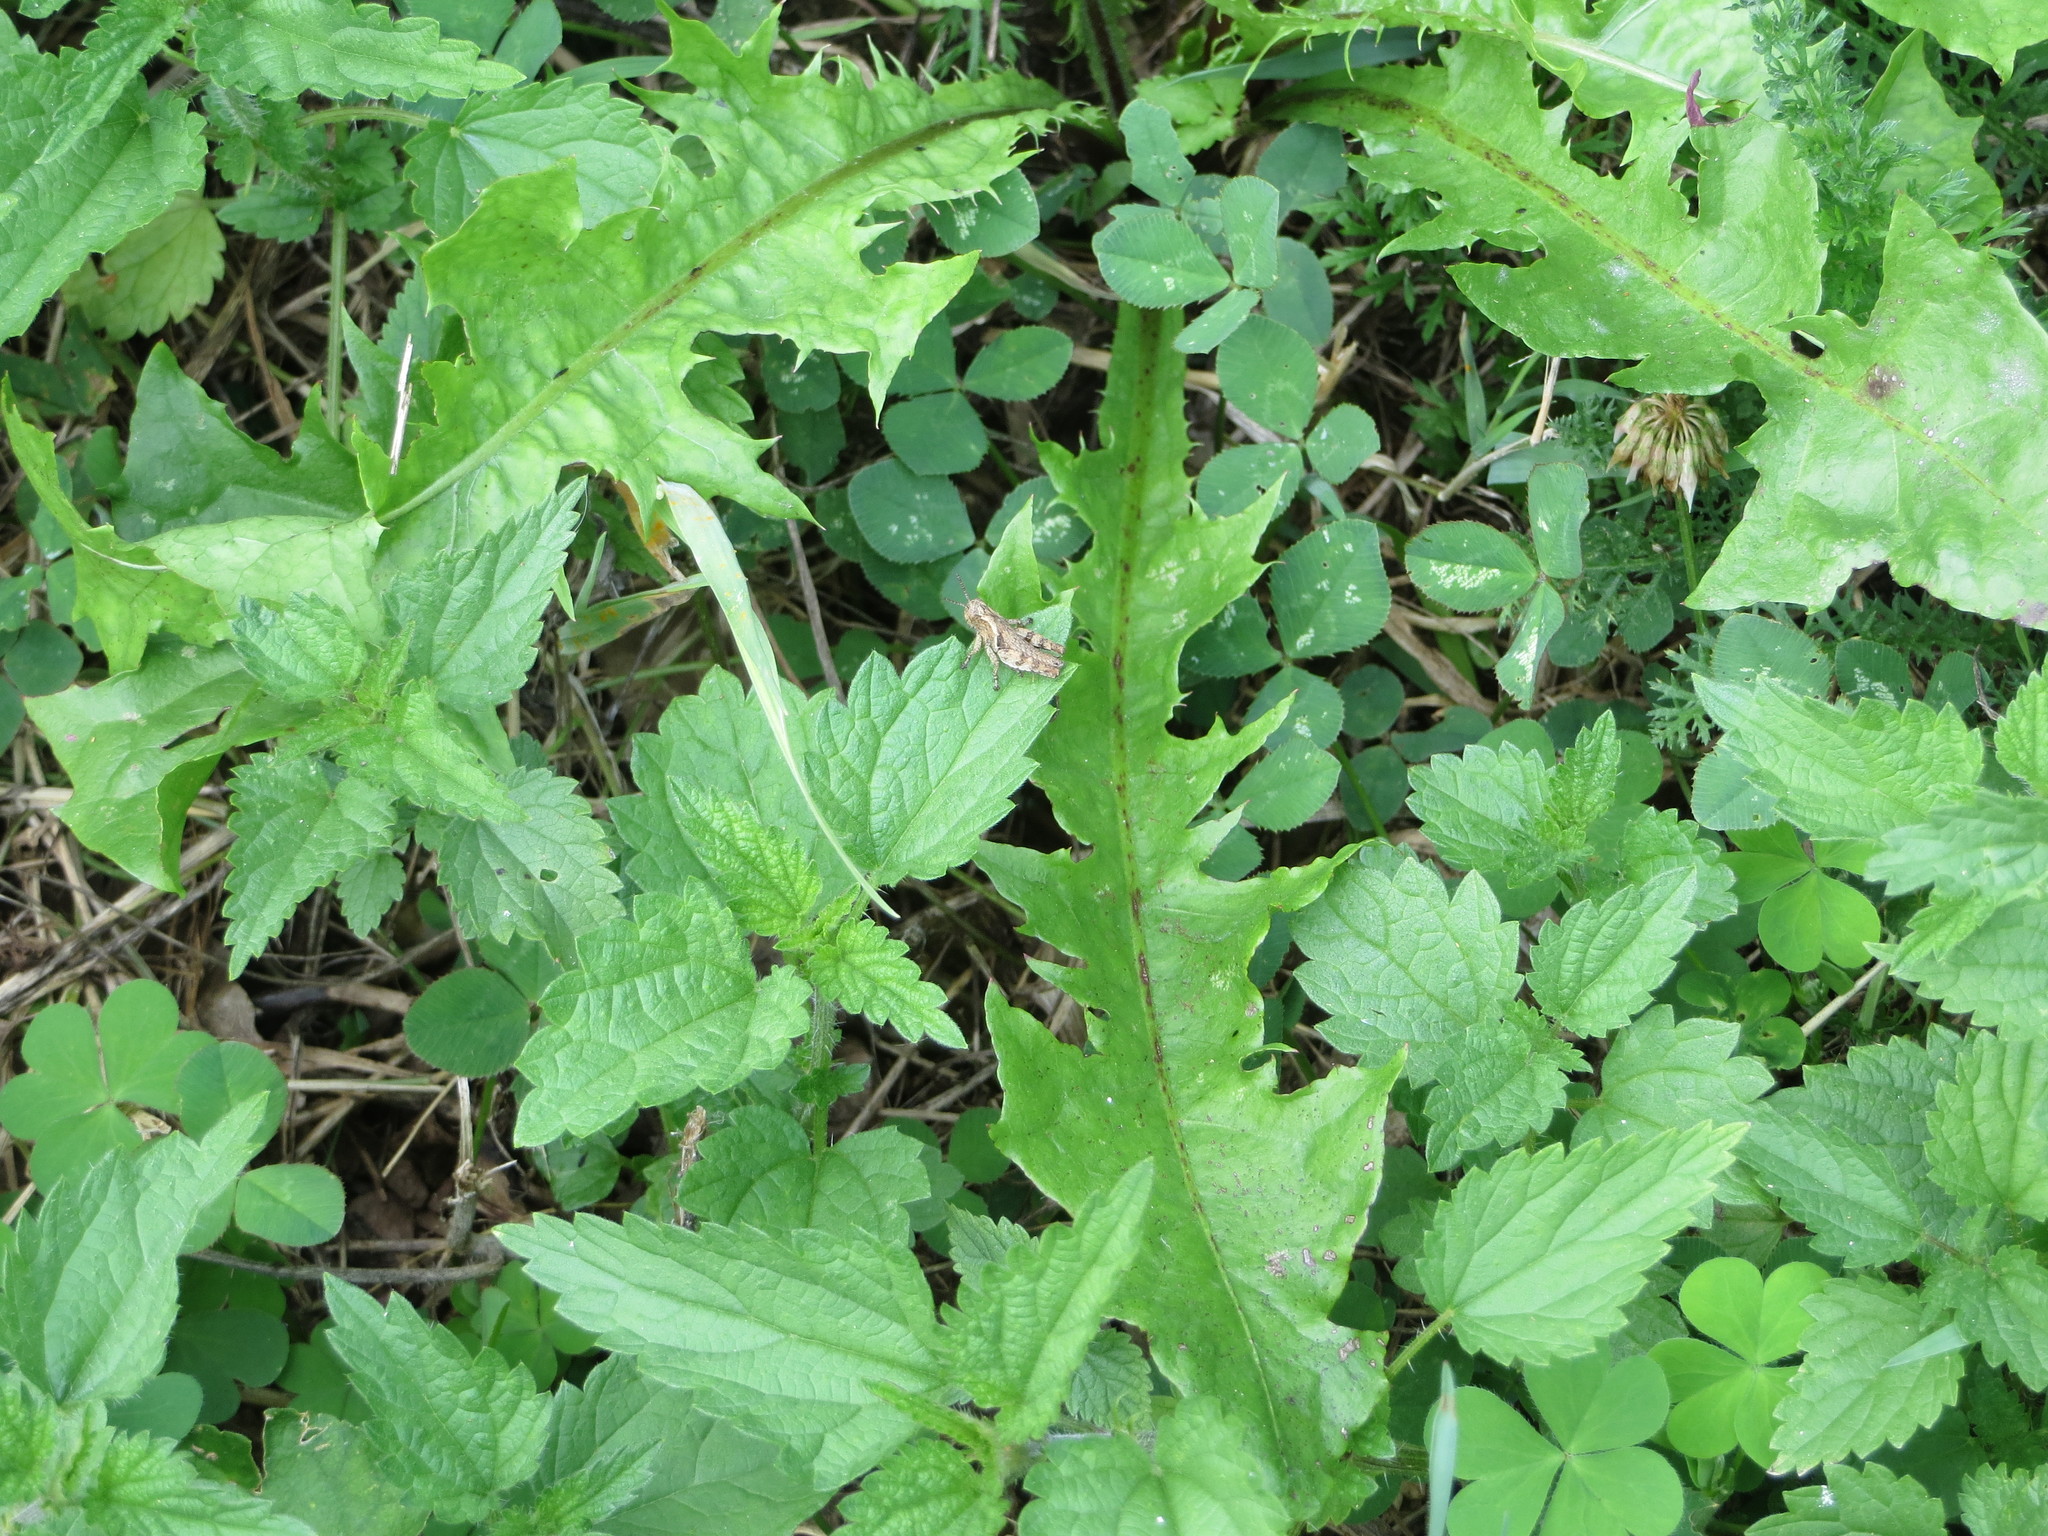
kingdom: Animalia
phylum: Arthropoda
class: Insecta
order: Orthoptera
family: Acrididae
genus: Pezotettix
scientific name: Pezotettix giornae
